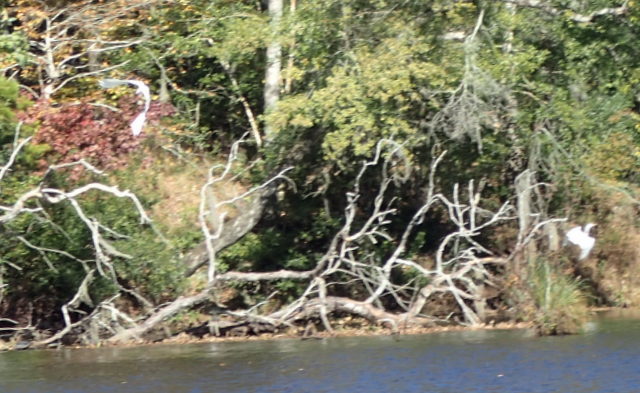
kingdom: Animalia
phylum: Chordata
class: Aves
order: Pelecaniformes
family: Ardeidae
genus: Ardea
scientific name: Ardea alba
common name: Great egret
